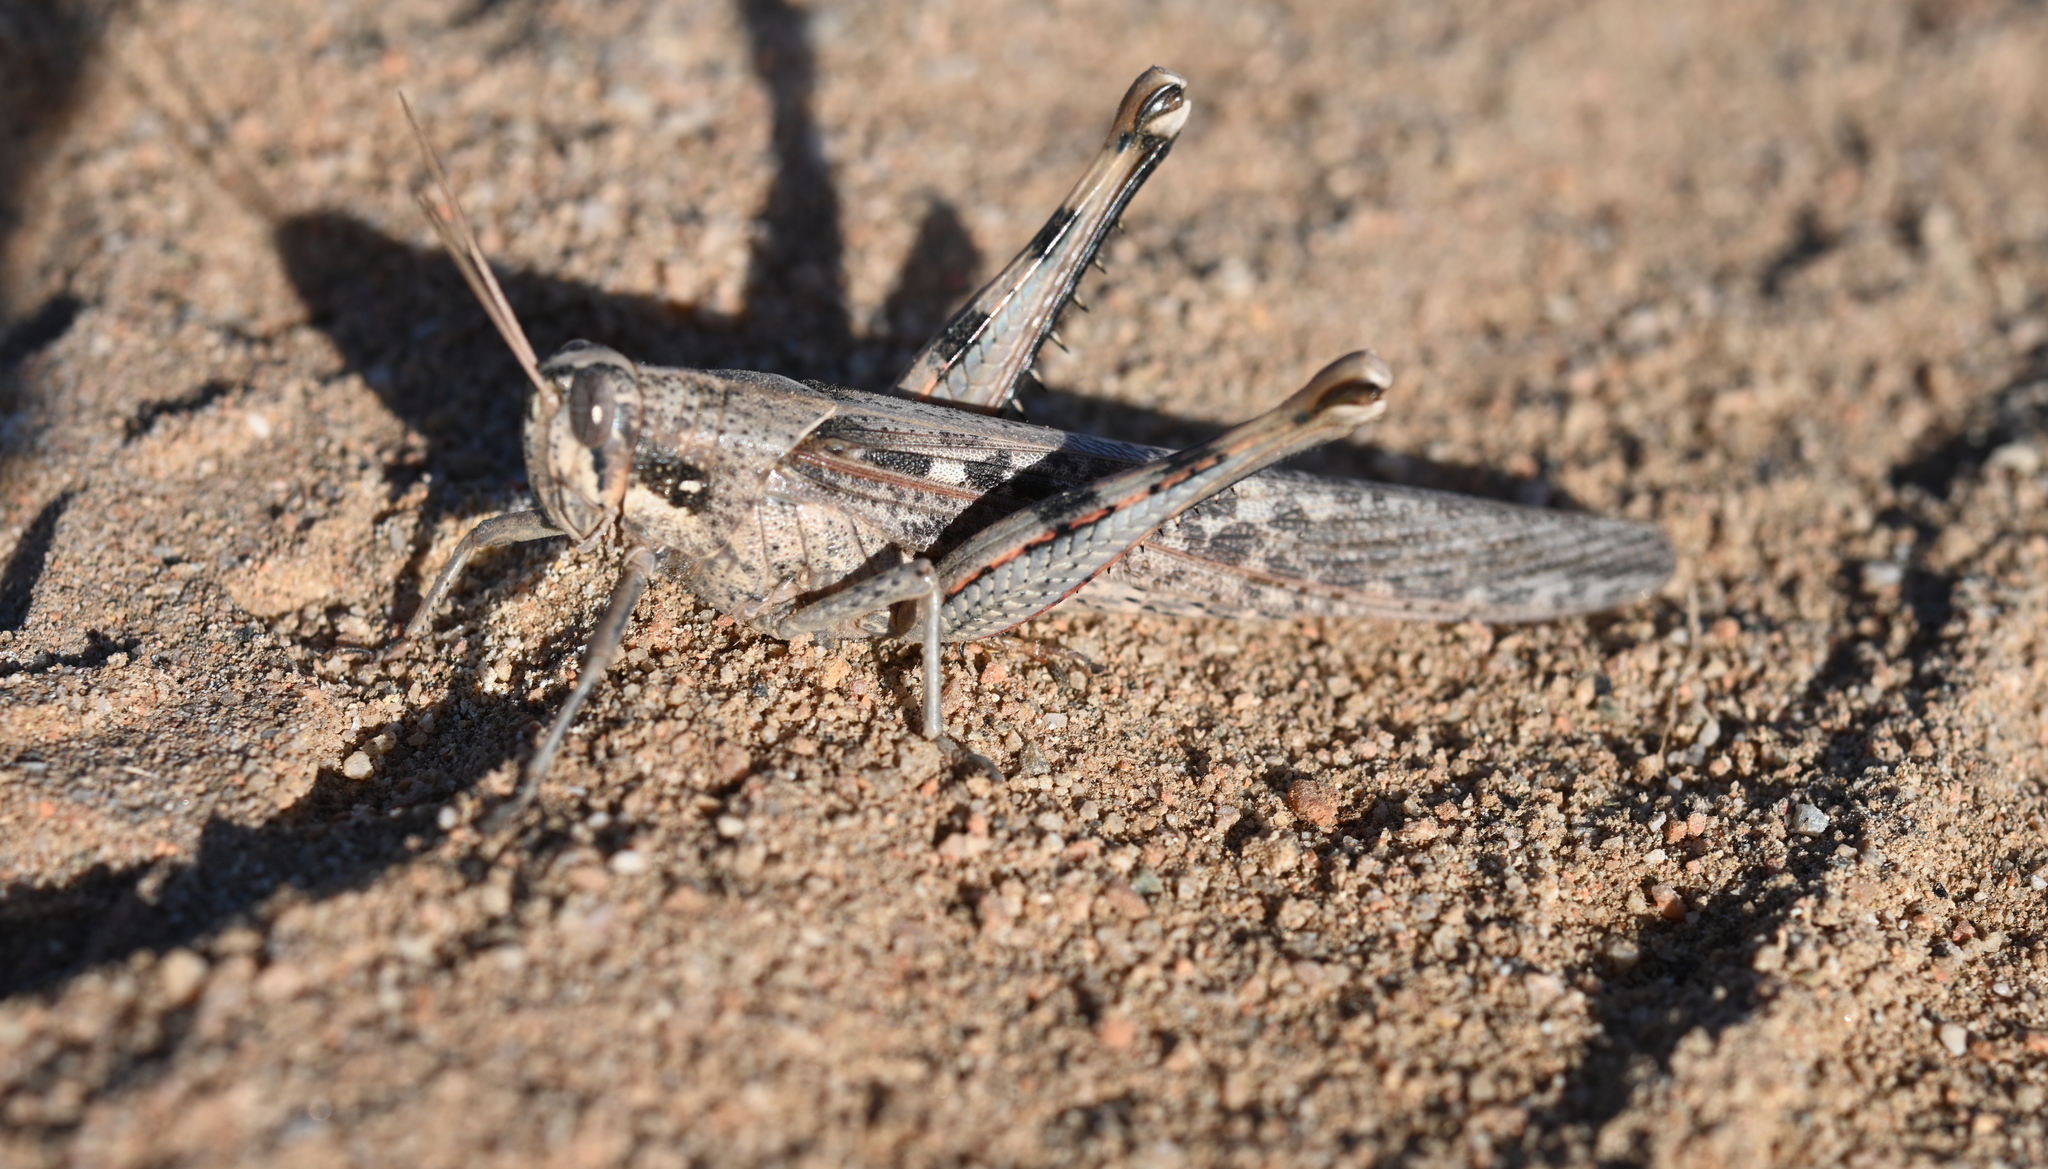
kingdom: Animalia
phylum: Arthropoda
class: Insecta
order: Orthoptera
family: Acrididae
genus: Schistocerca
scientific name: Schistocerca nitens
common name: Vagrant grasshopper
